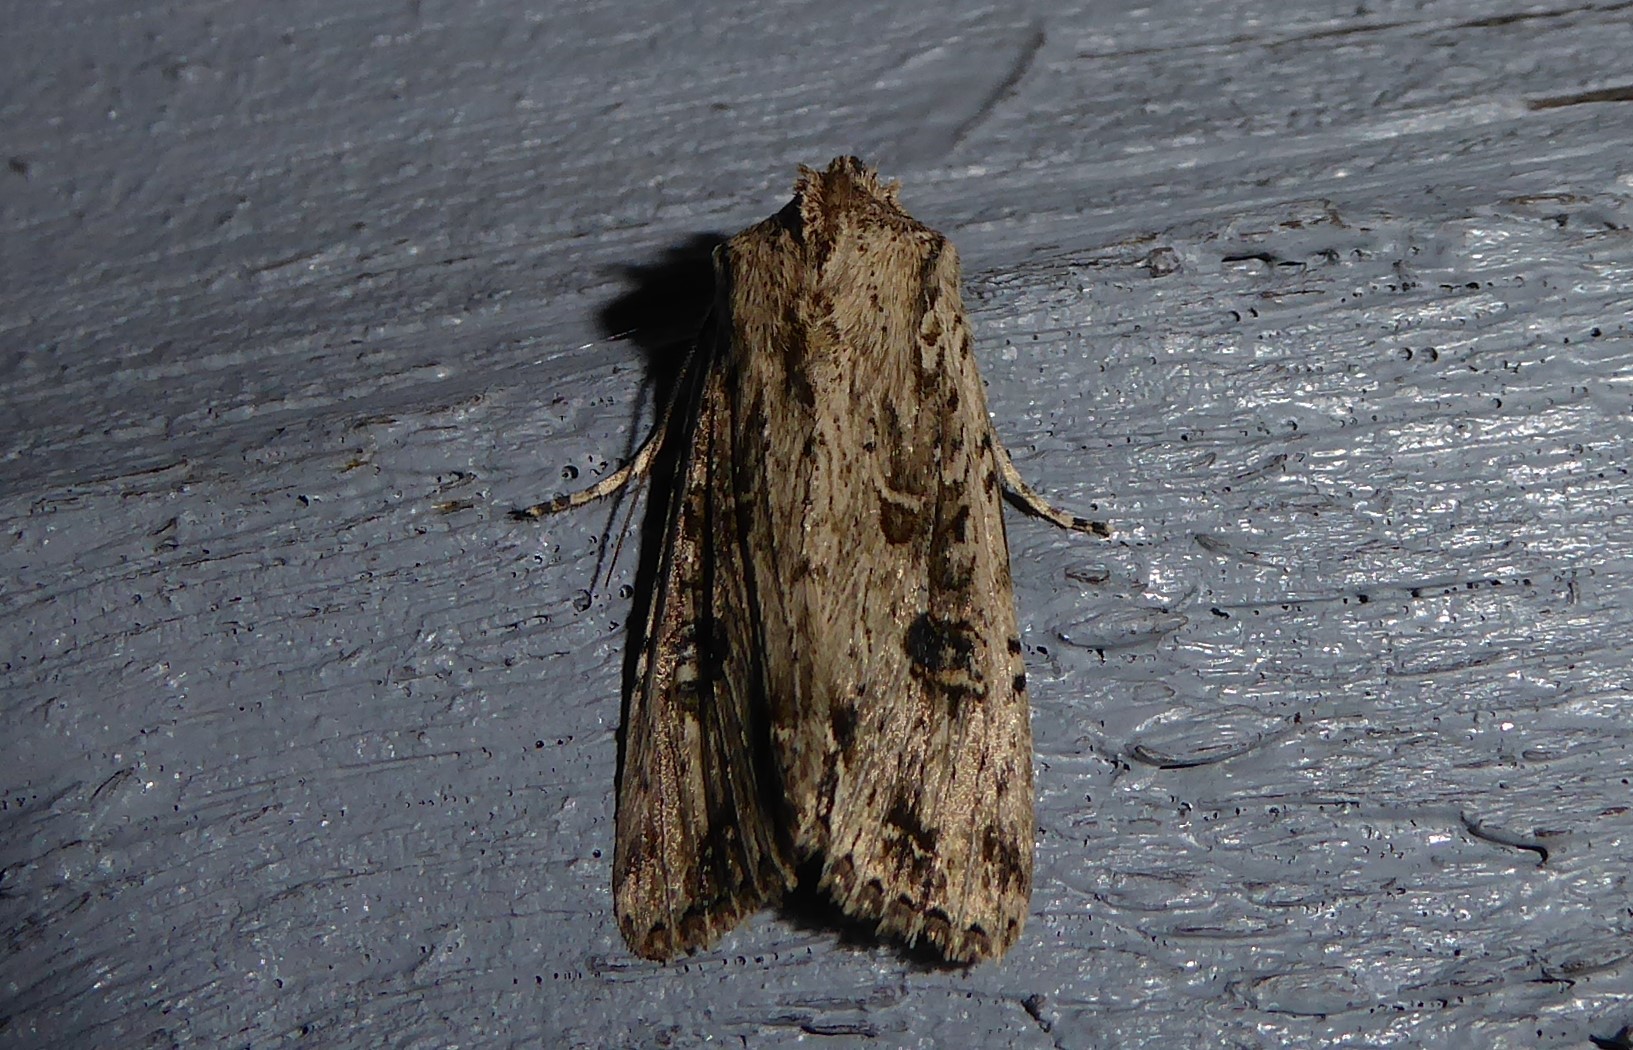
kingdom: Animalia
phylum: Arthropoda
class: Insecta
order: Lepidoptera
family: Noctuidae
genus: Ichneutica
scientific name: Ichneutica lignana
